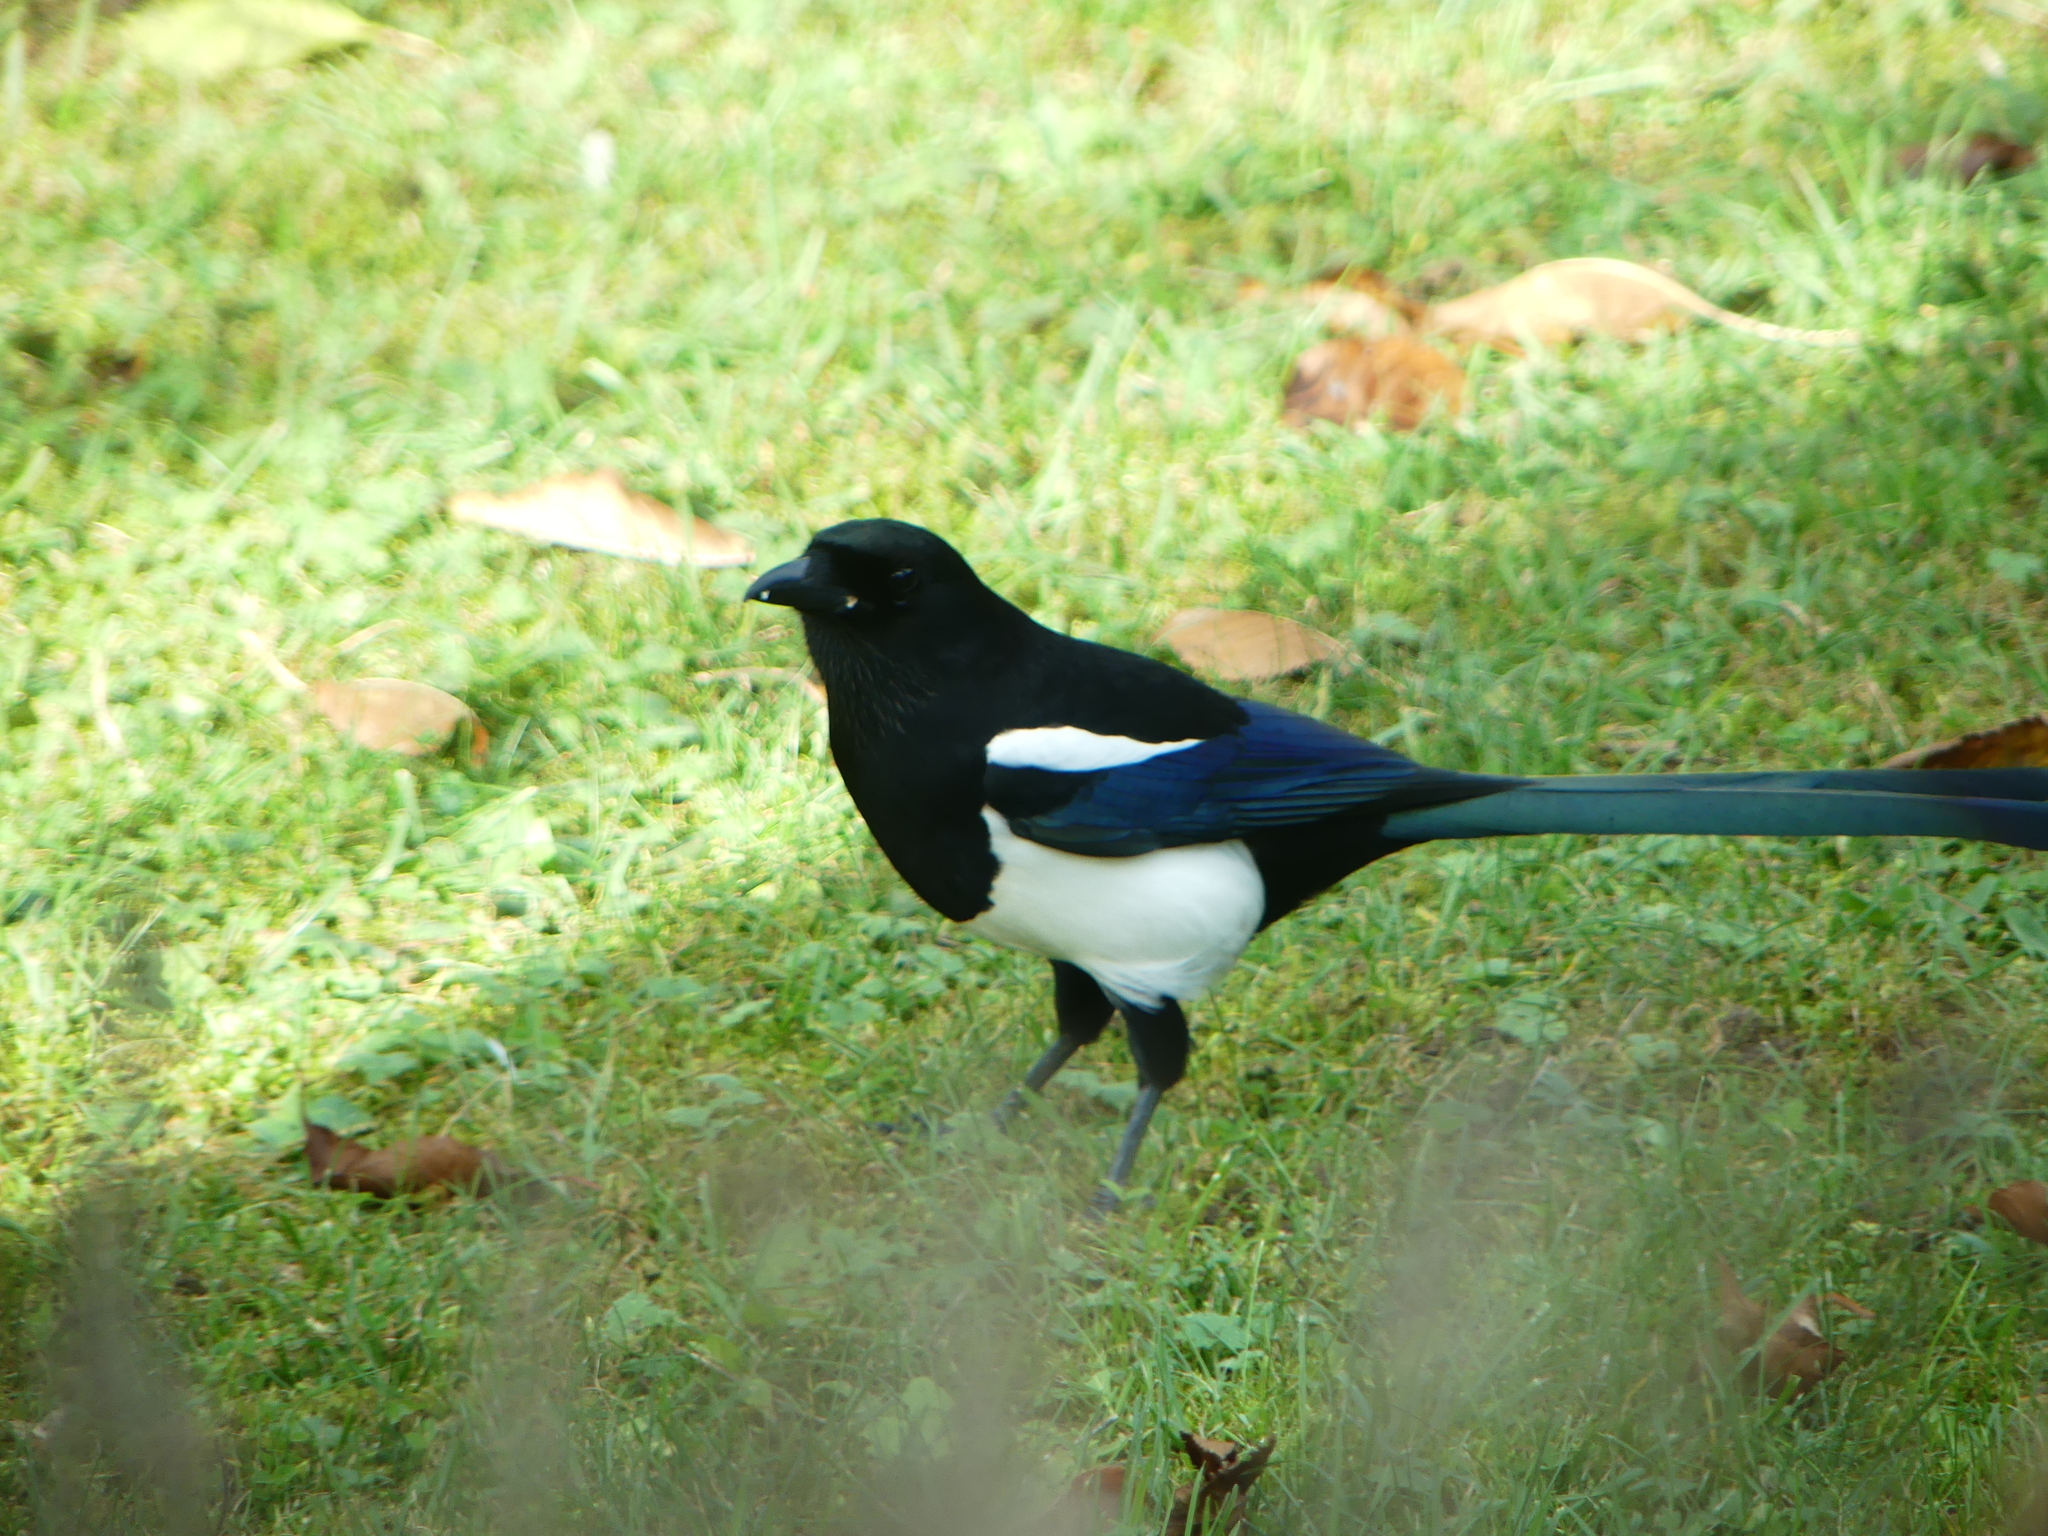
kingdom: Animalia
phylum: Chordata
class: Aves
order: Passeriformes
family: Corvidae
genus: Pica
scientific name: Pica pica
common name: Eurasian magpie
